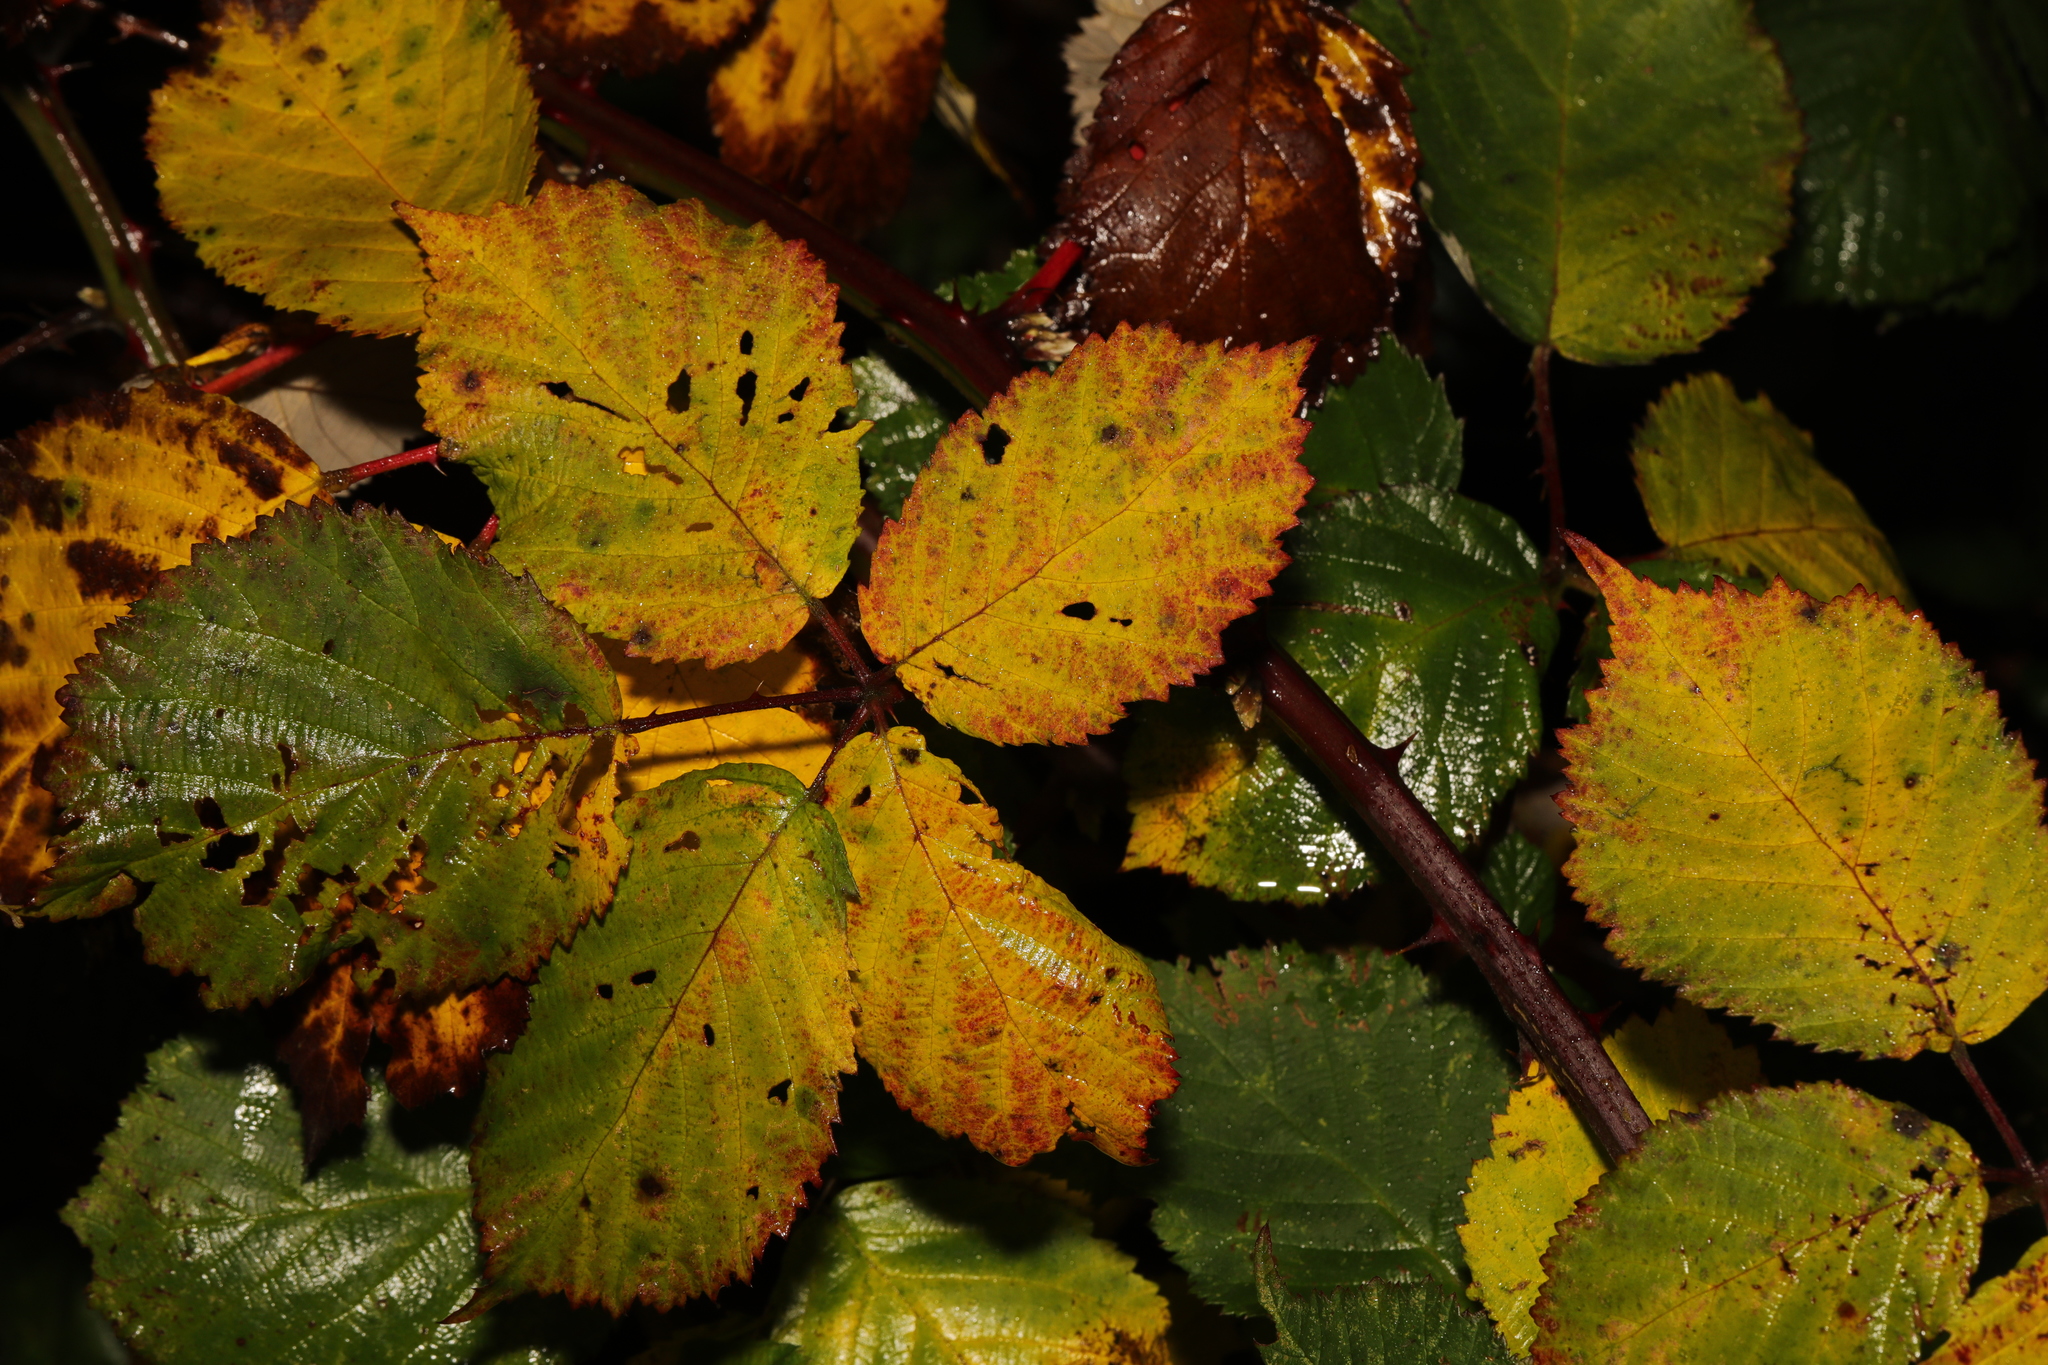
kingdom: Plantae
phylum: Tracheophyta
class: Magnoliopsida
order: Rosales
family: Rosaceae
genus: Rubus
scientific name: Rubus armeniacus
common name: Himalayan blackberry
